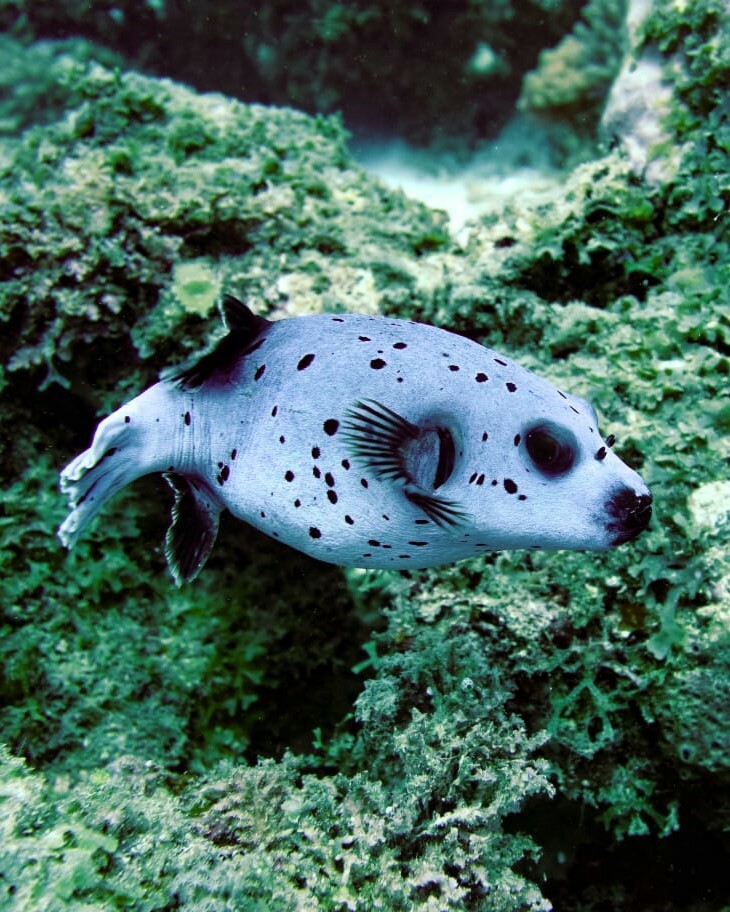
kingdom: Animalia
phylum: Chordata
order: Tetraodontiformes
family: Tetraodontidae
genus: Arothron
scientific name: Arothron nigropunctatus
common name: Black spotted blow fish
